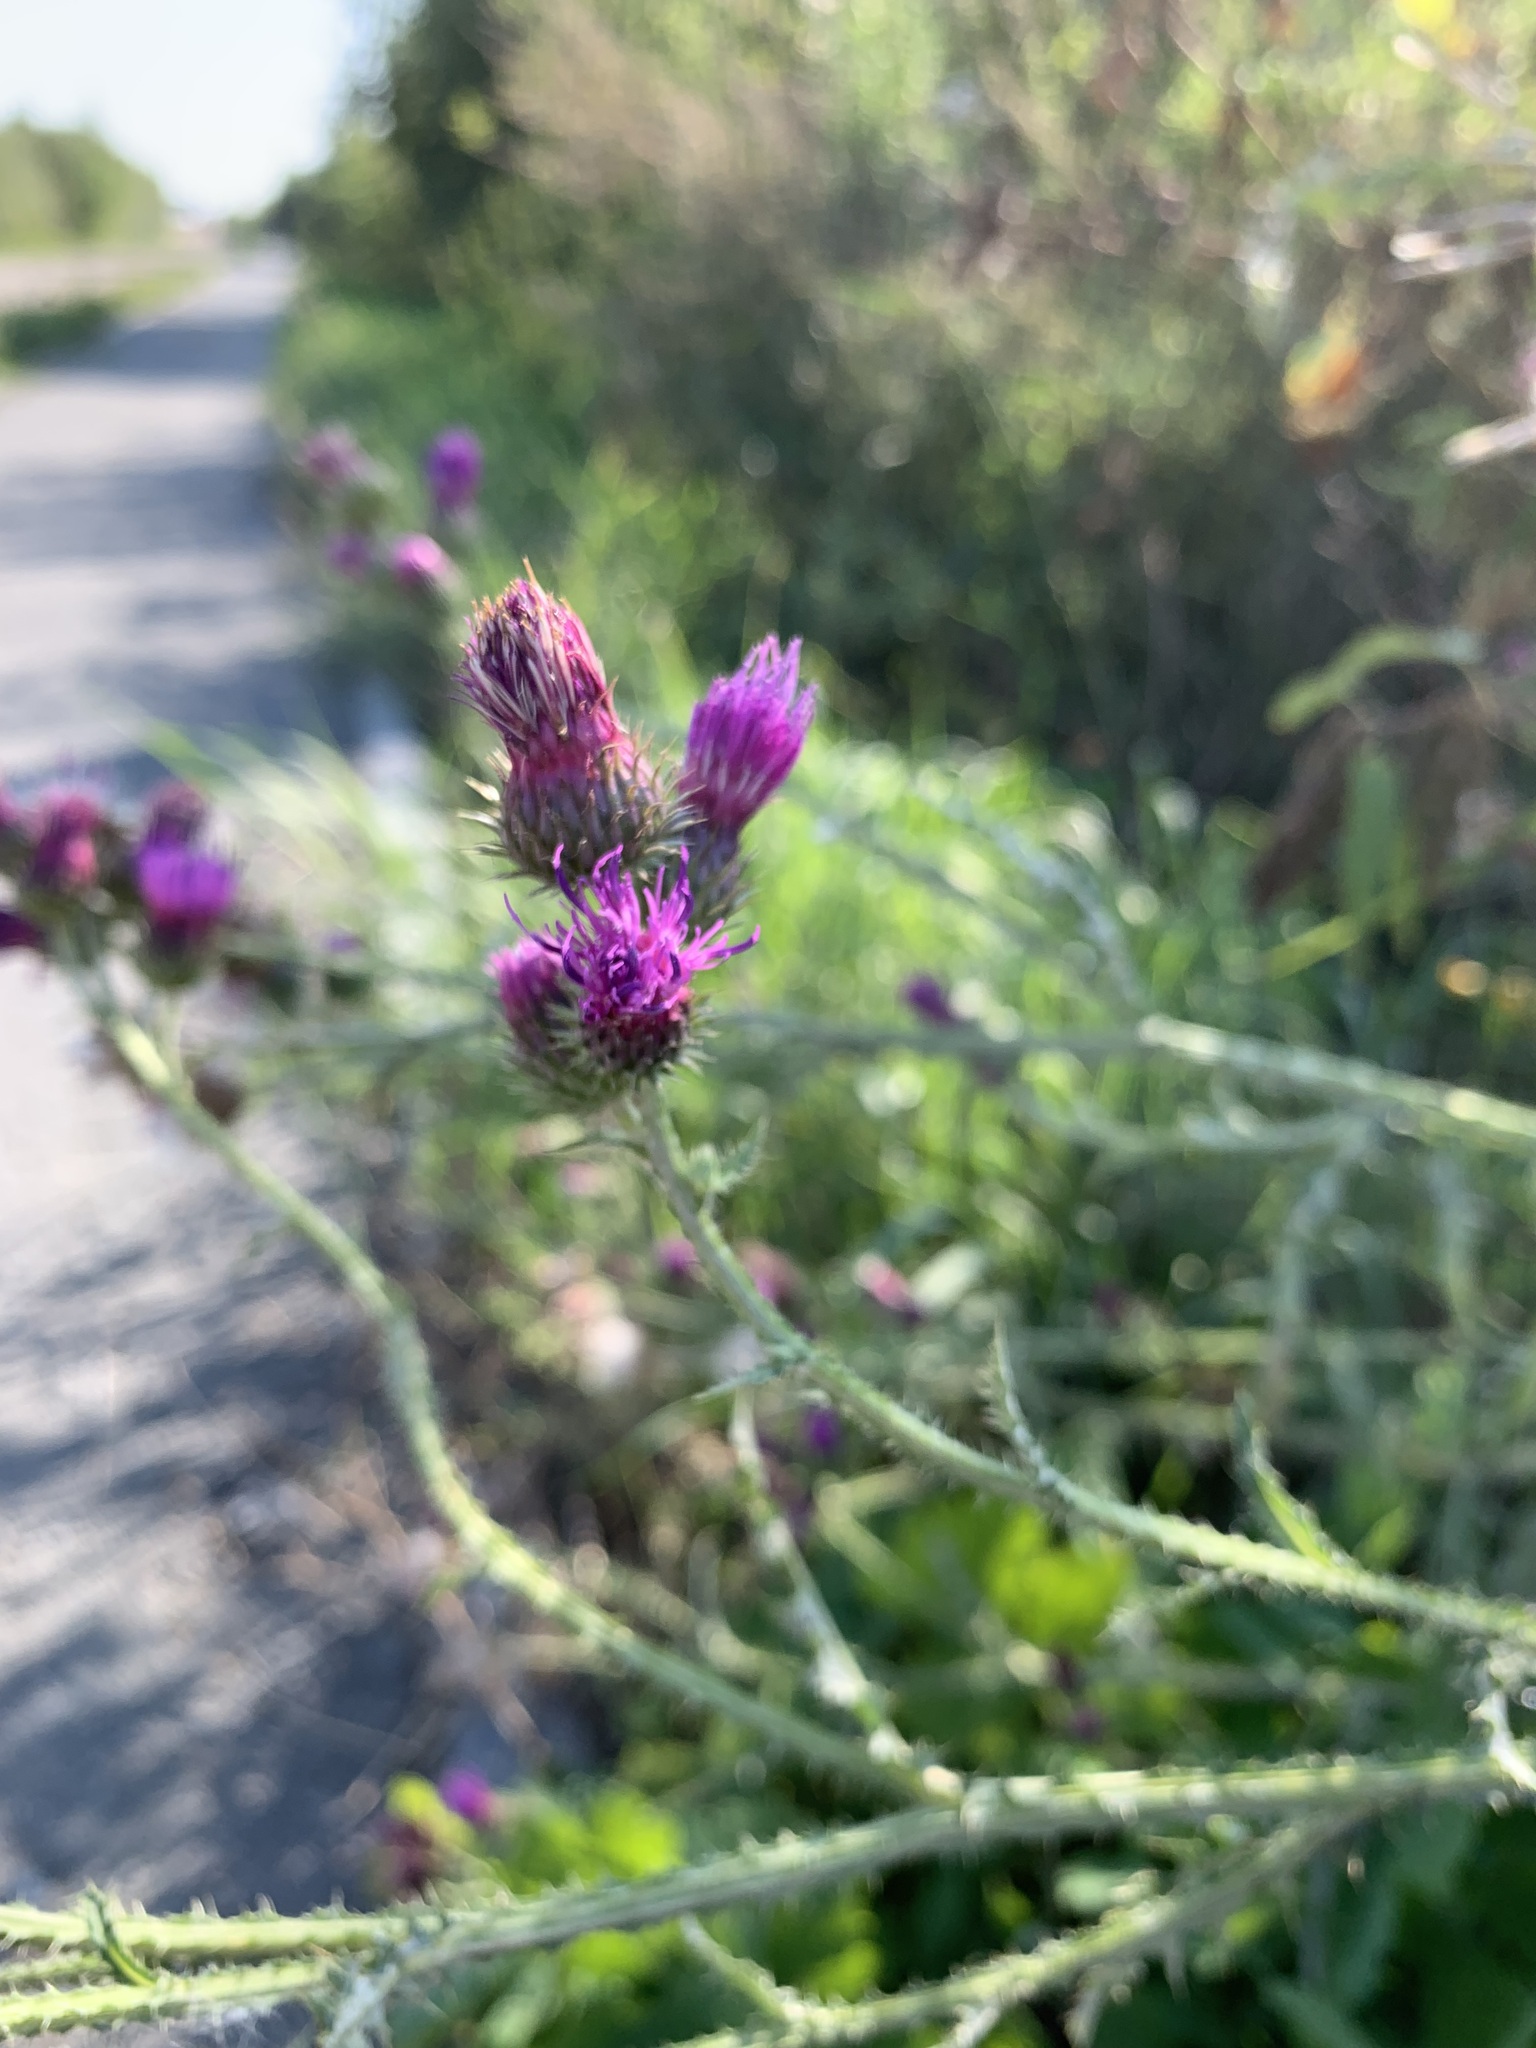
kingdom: Plantae
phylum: Tracheophyta
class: Magnoliopsida
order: Asterales
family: Asteraceae
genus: Carduus
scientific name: Carduus crispus
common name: Welted thistle
